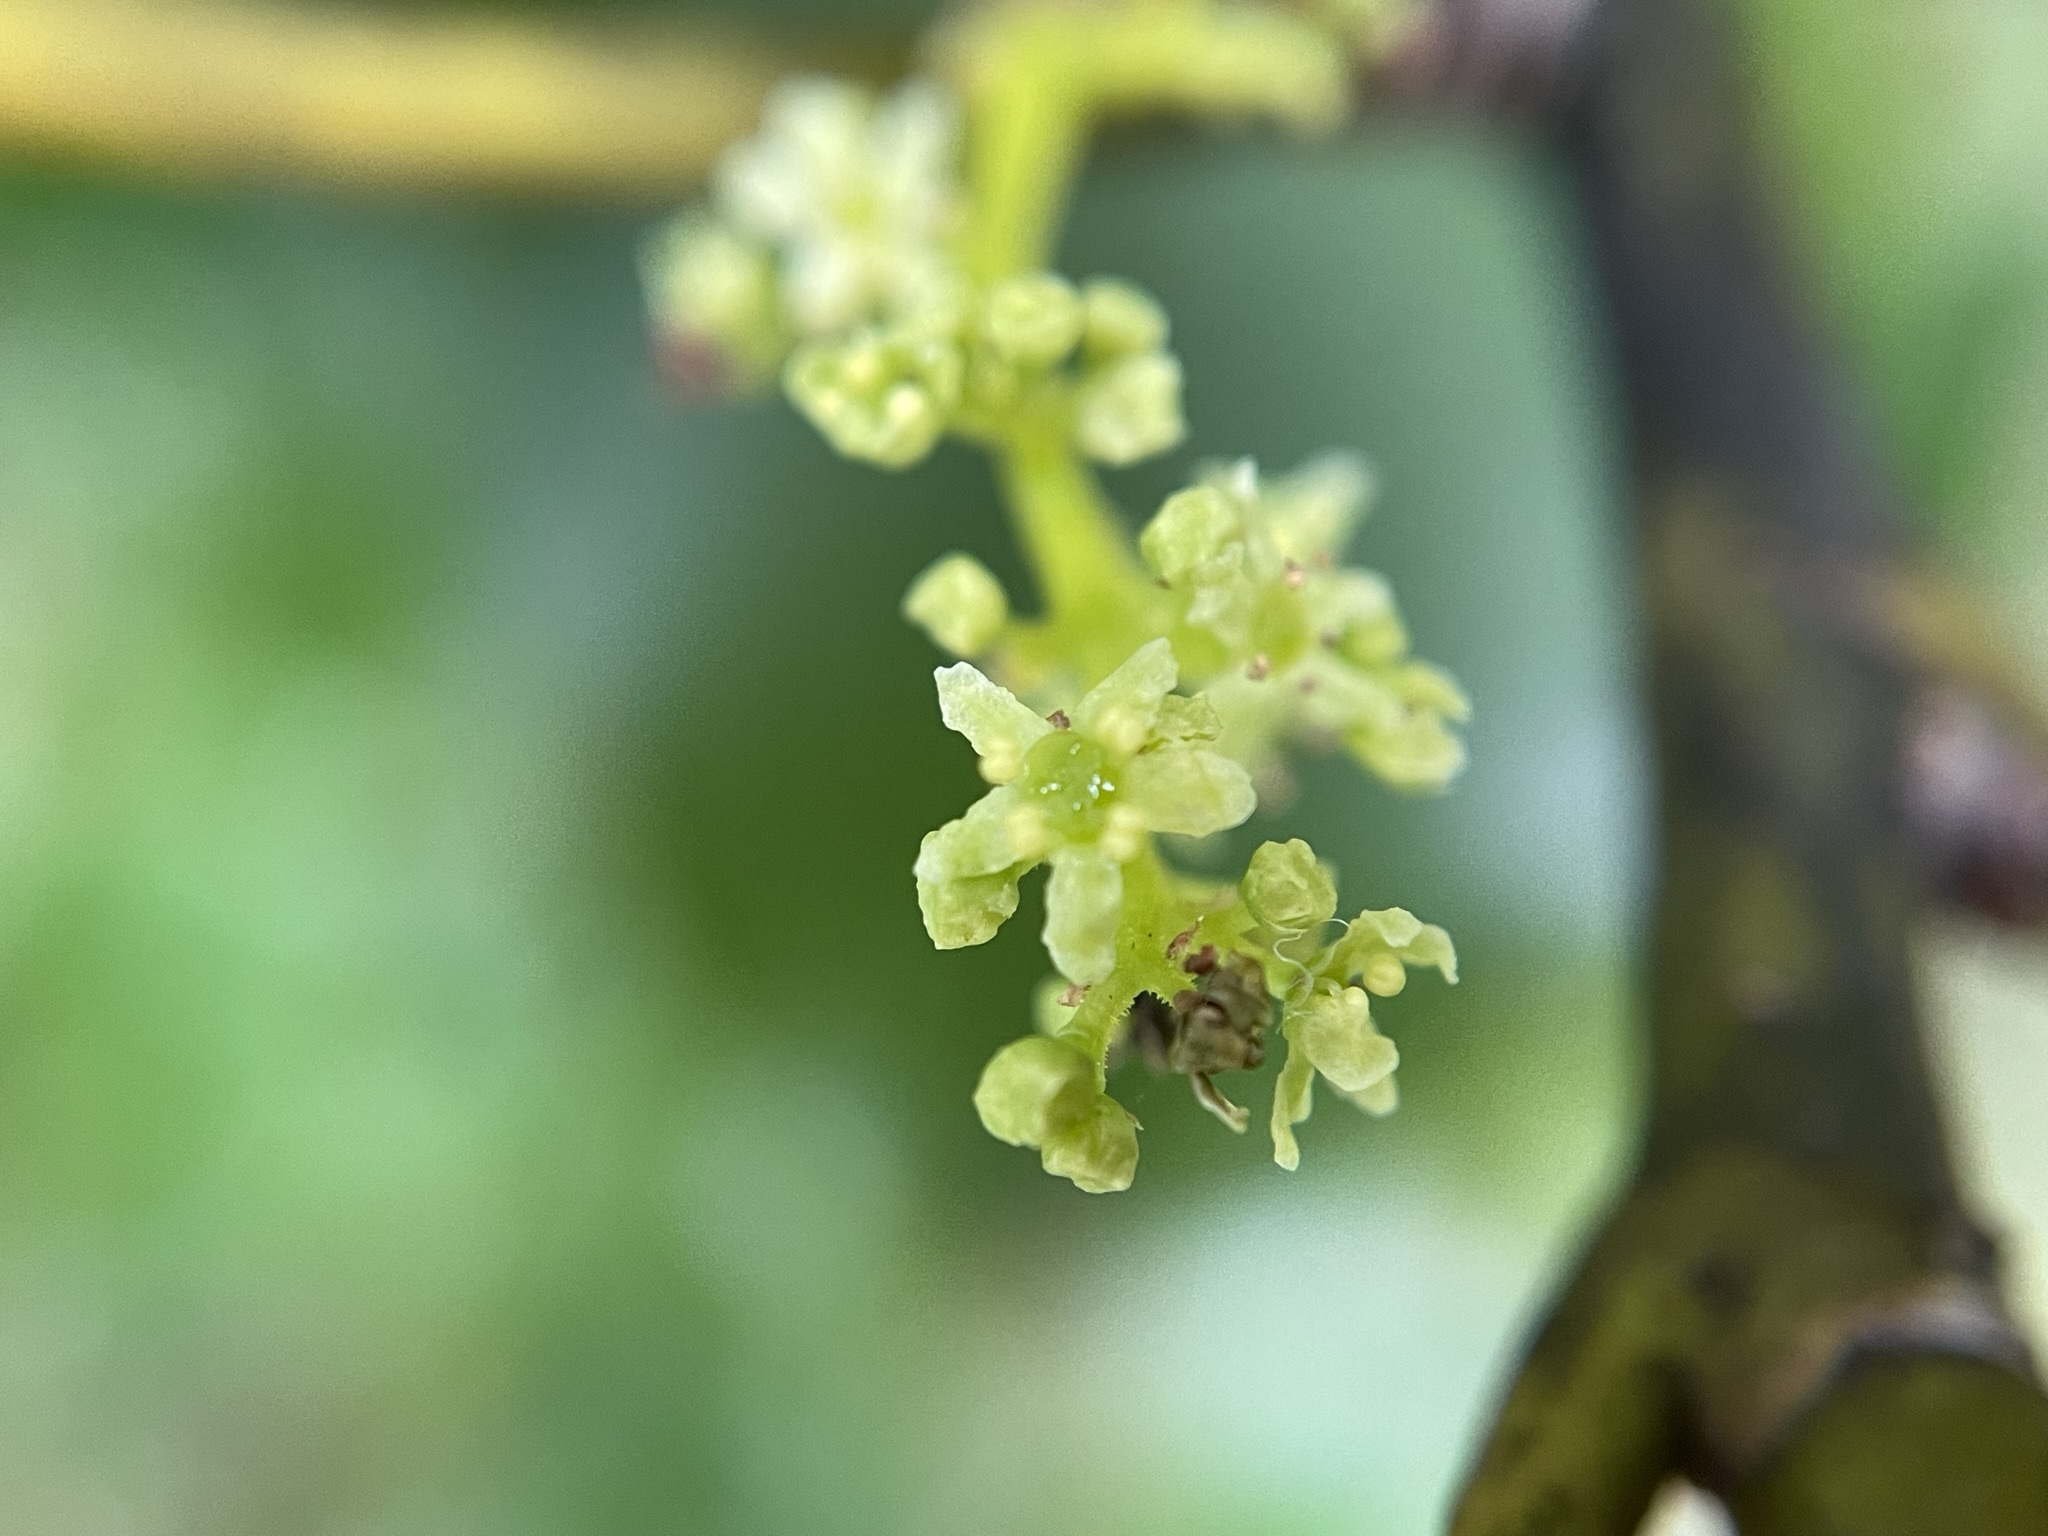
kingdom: Plantae
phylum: Tracheophyta
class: Magnoliopsida
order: Apiales
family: Griseliniaceae
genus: Griselinia
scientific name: Griselinia littoralis
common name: New zealand broadleaf
